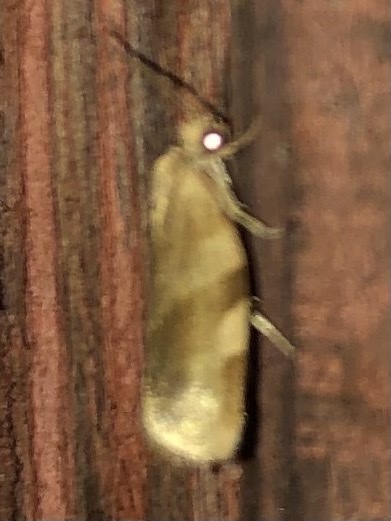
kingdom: Animalia
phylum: Arthropoda
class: Insecta
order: Lepidoptera
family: Tortricidae
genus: Choristoneura
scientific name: Choristoneura fractivittana
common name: Broken-banded leafroller moth
